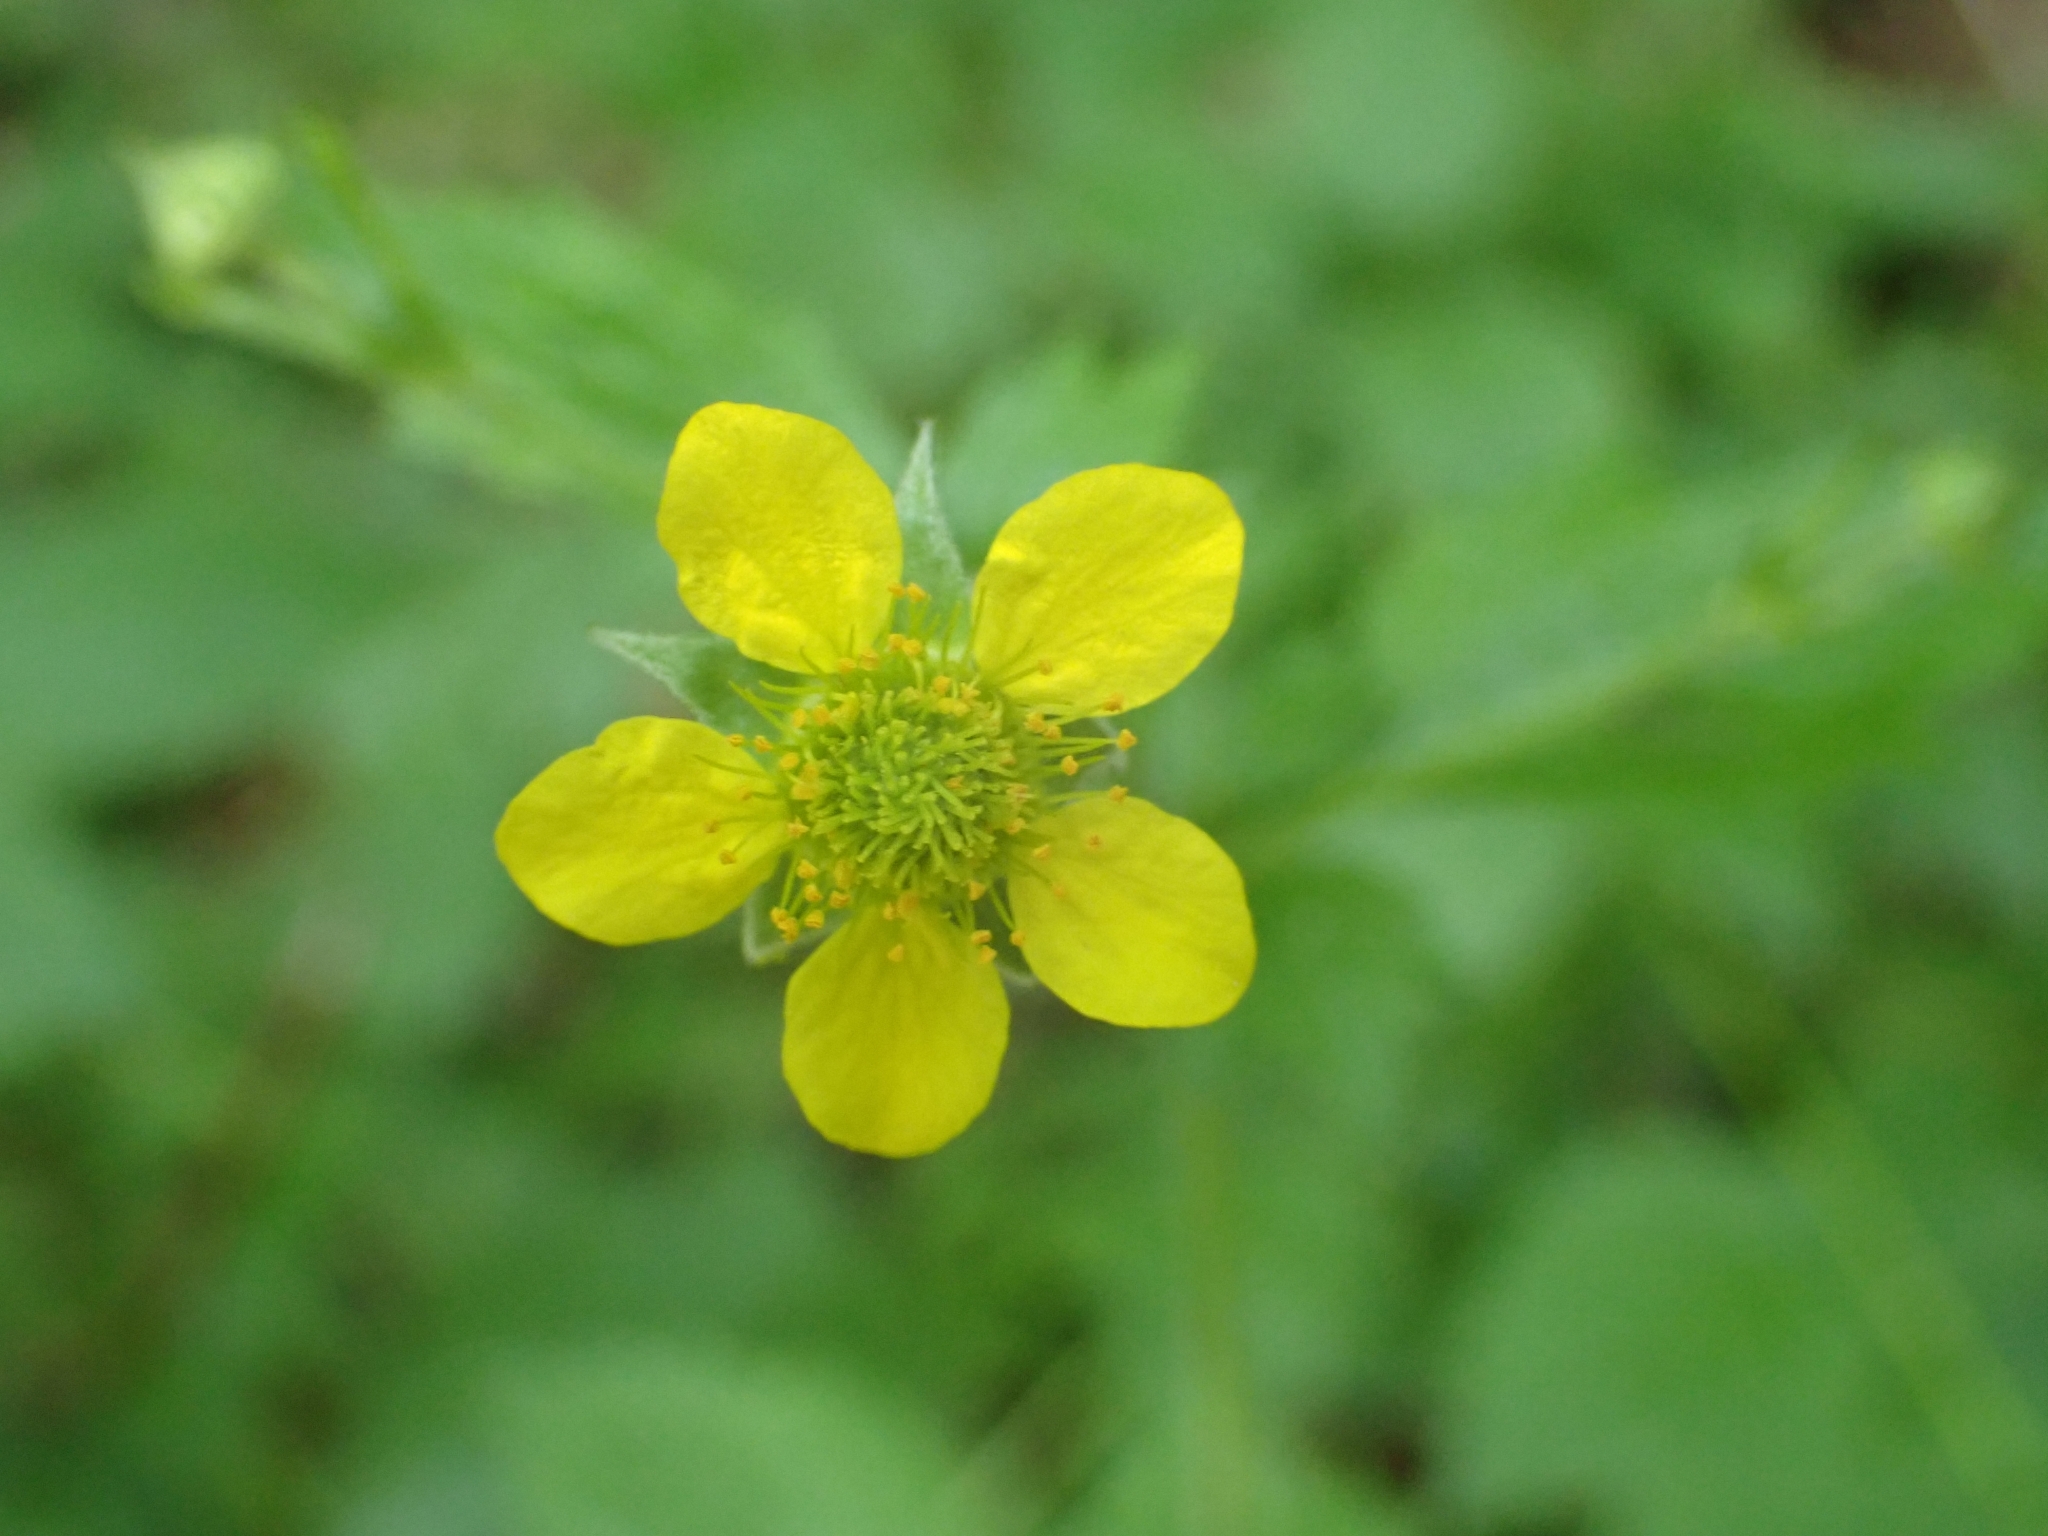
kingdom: Plantae
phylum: Tracheophyta
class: Magnoliopsida
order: Rosales
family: Rosaceae
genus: Geum
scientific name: Geum urbanum
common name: Wood avens
